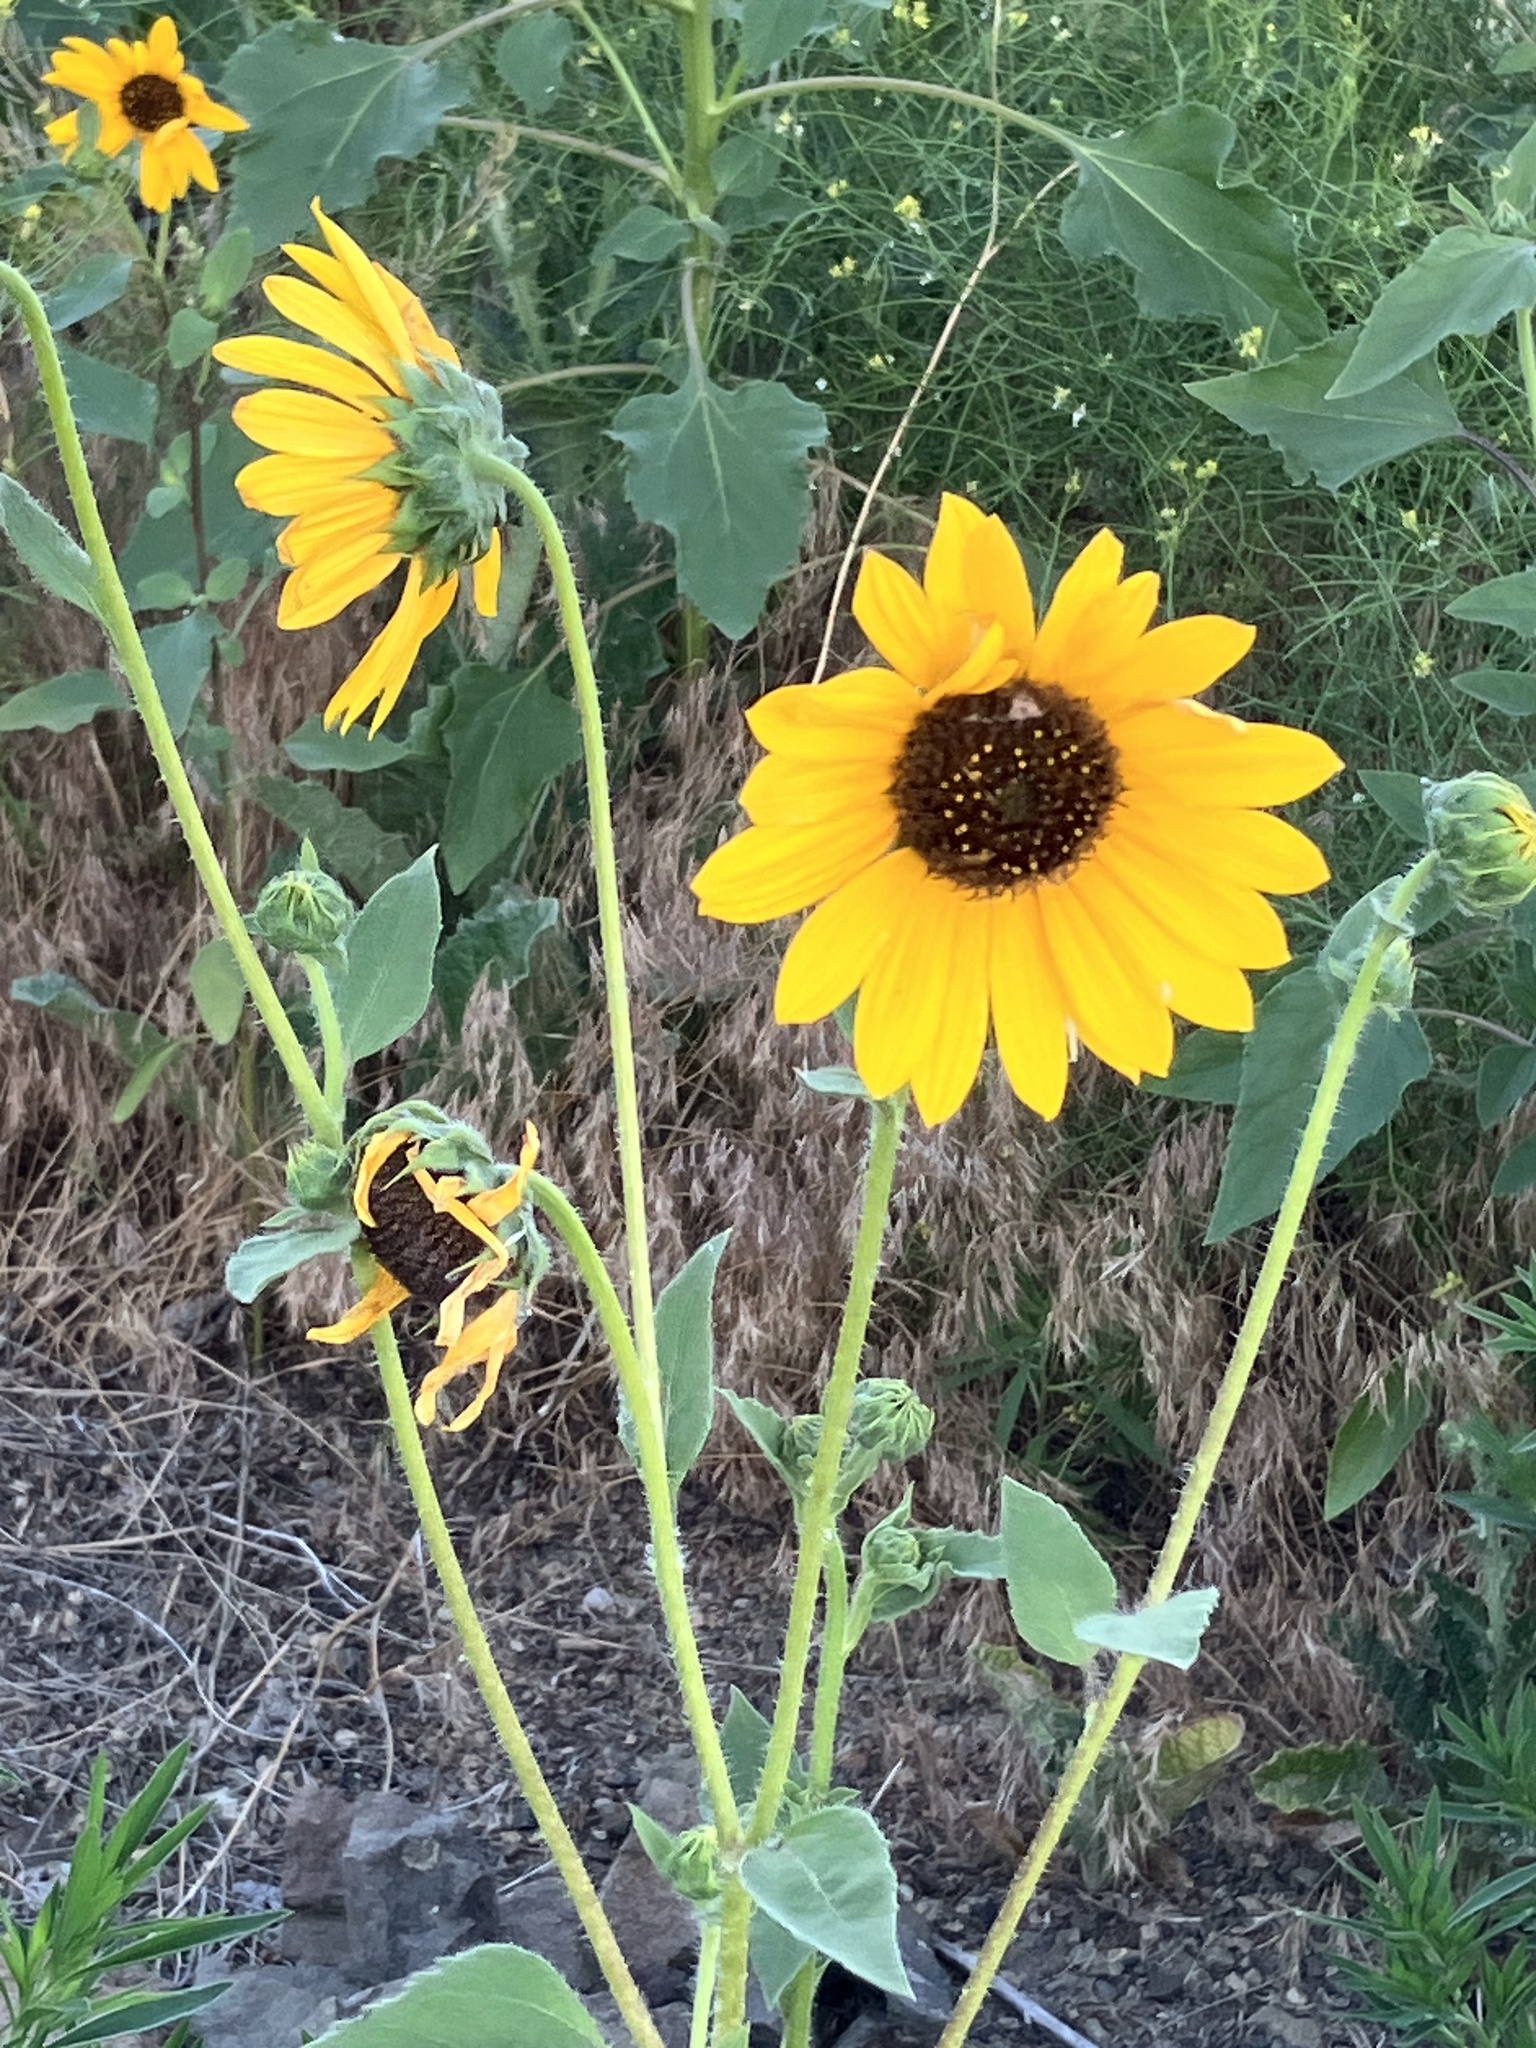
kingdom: Plantae
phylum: Tracheophyta
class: Magnoliopsida
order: Asterales
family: Asteraceae
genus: Helianthus
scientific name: Helianthus annuus
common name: Sunflower
